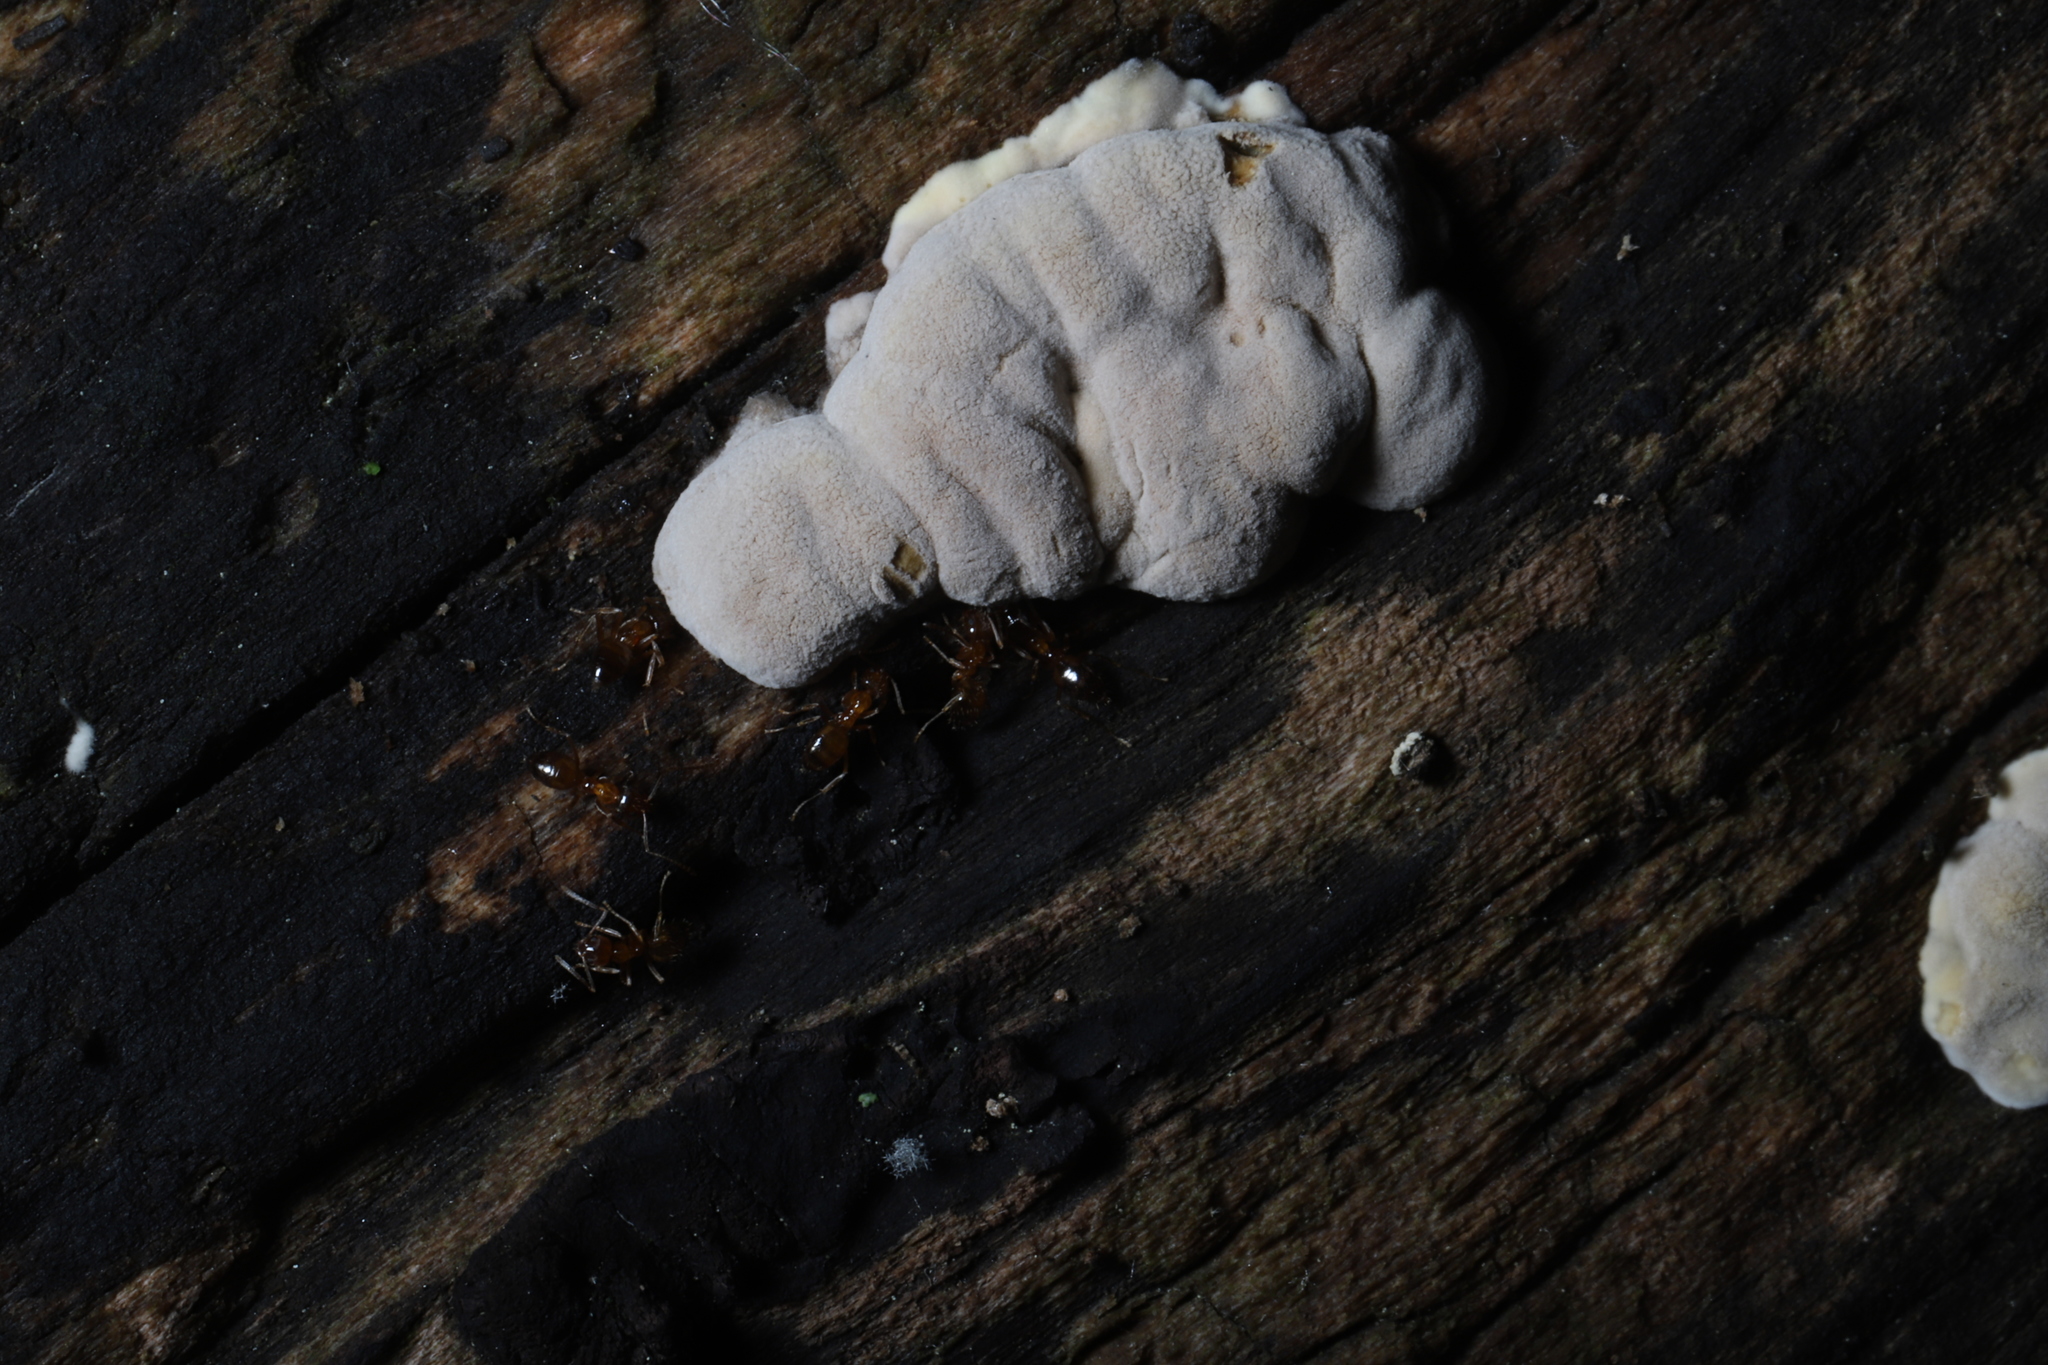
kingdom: Animalia
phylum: Arthropoda
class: Insecta
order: Hymenoptera
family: Formicidae
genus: Paratrechina
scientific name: Paratrechina flavipes
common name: Eastern asian formicine ant
